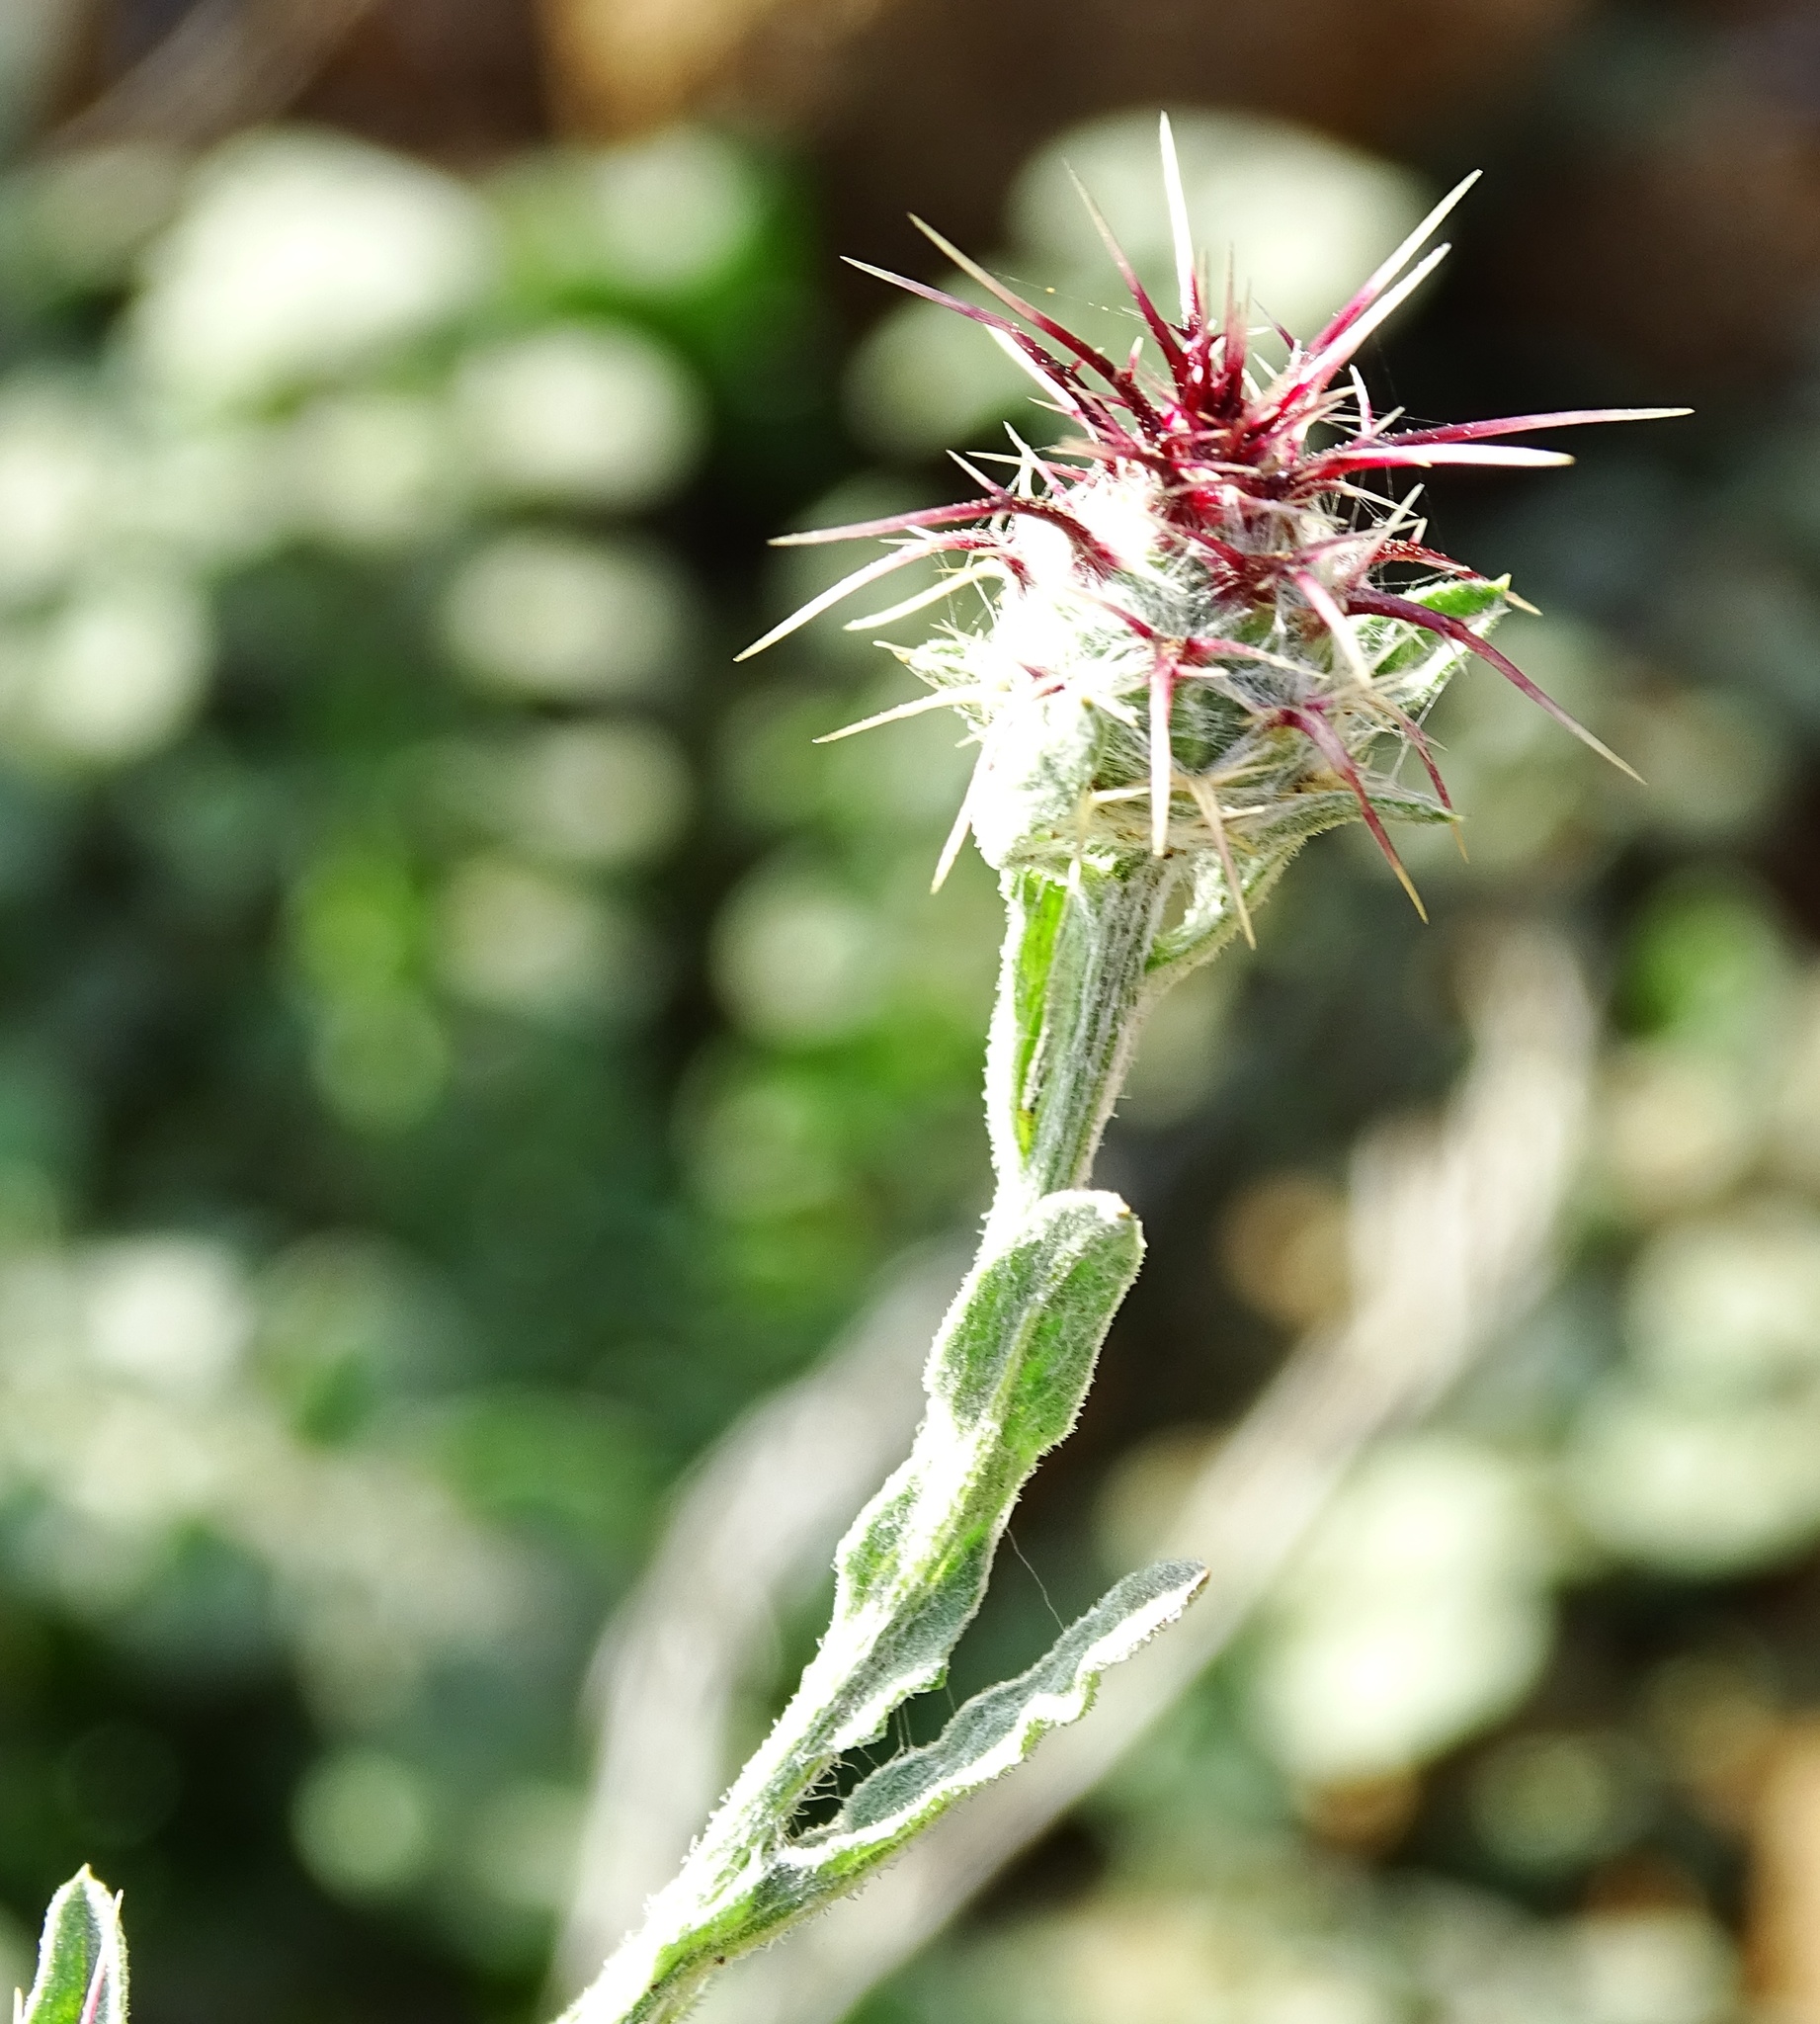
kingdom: Plantae
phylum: Tracheophyta
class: Magnoliopsida
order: Asterales
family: Asteraceae
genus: Centaurea
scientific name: Centaurea melitensis
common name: Maltese star-thistle
